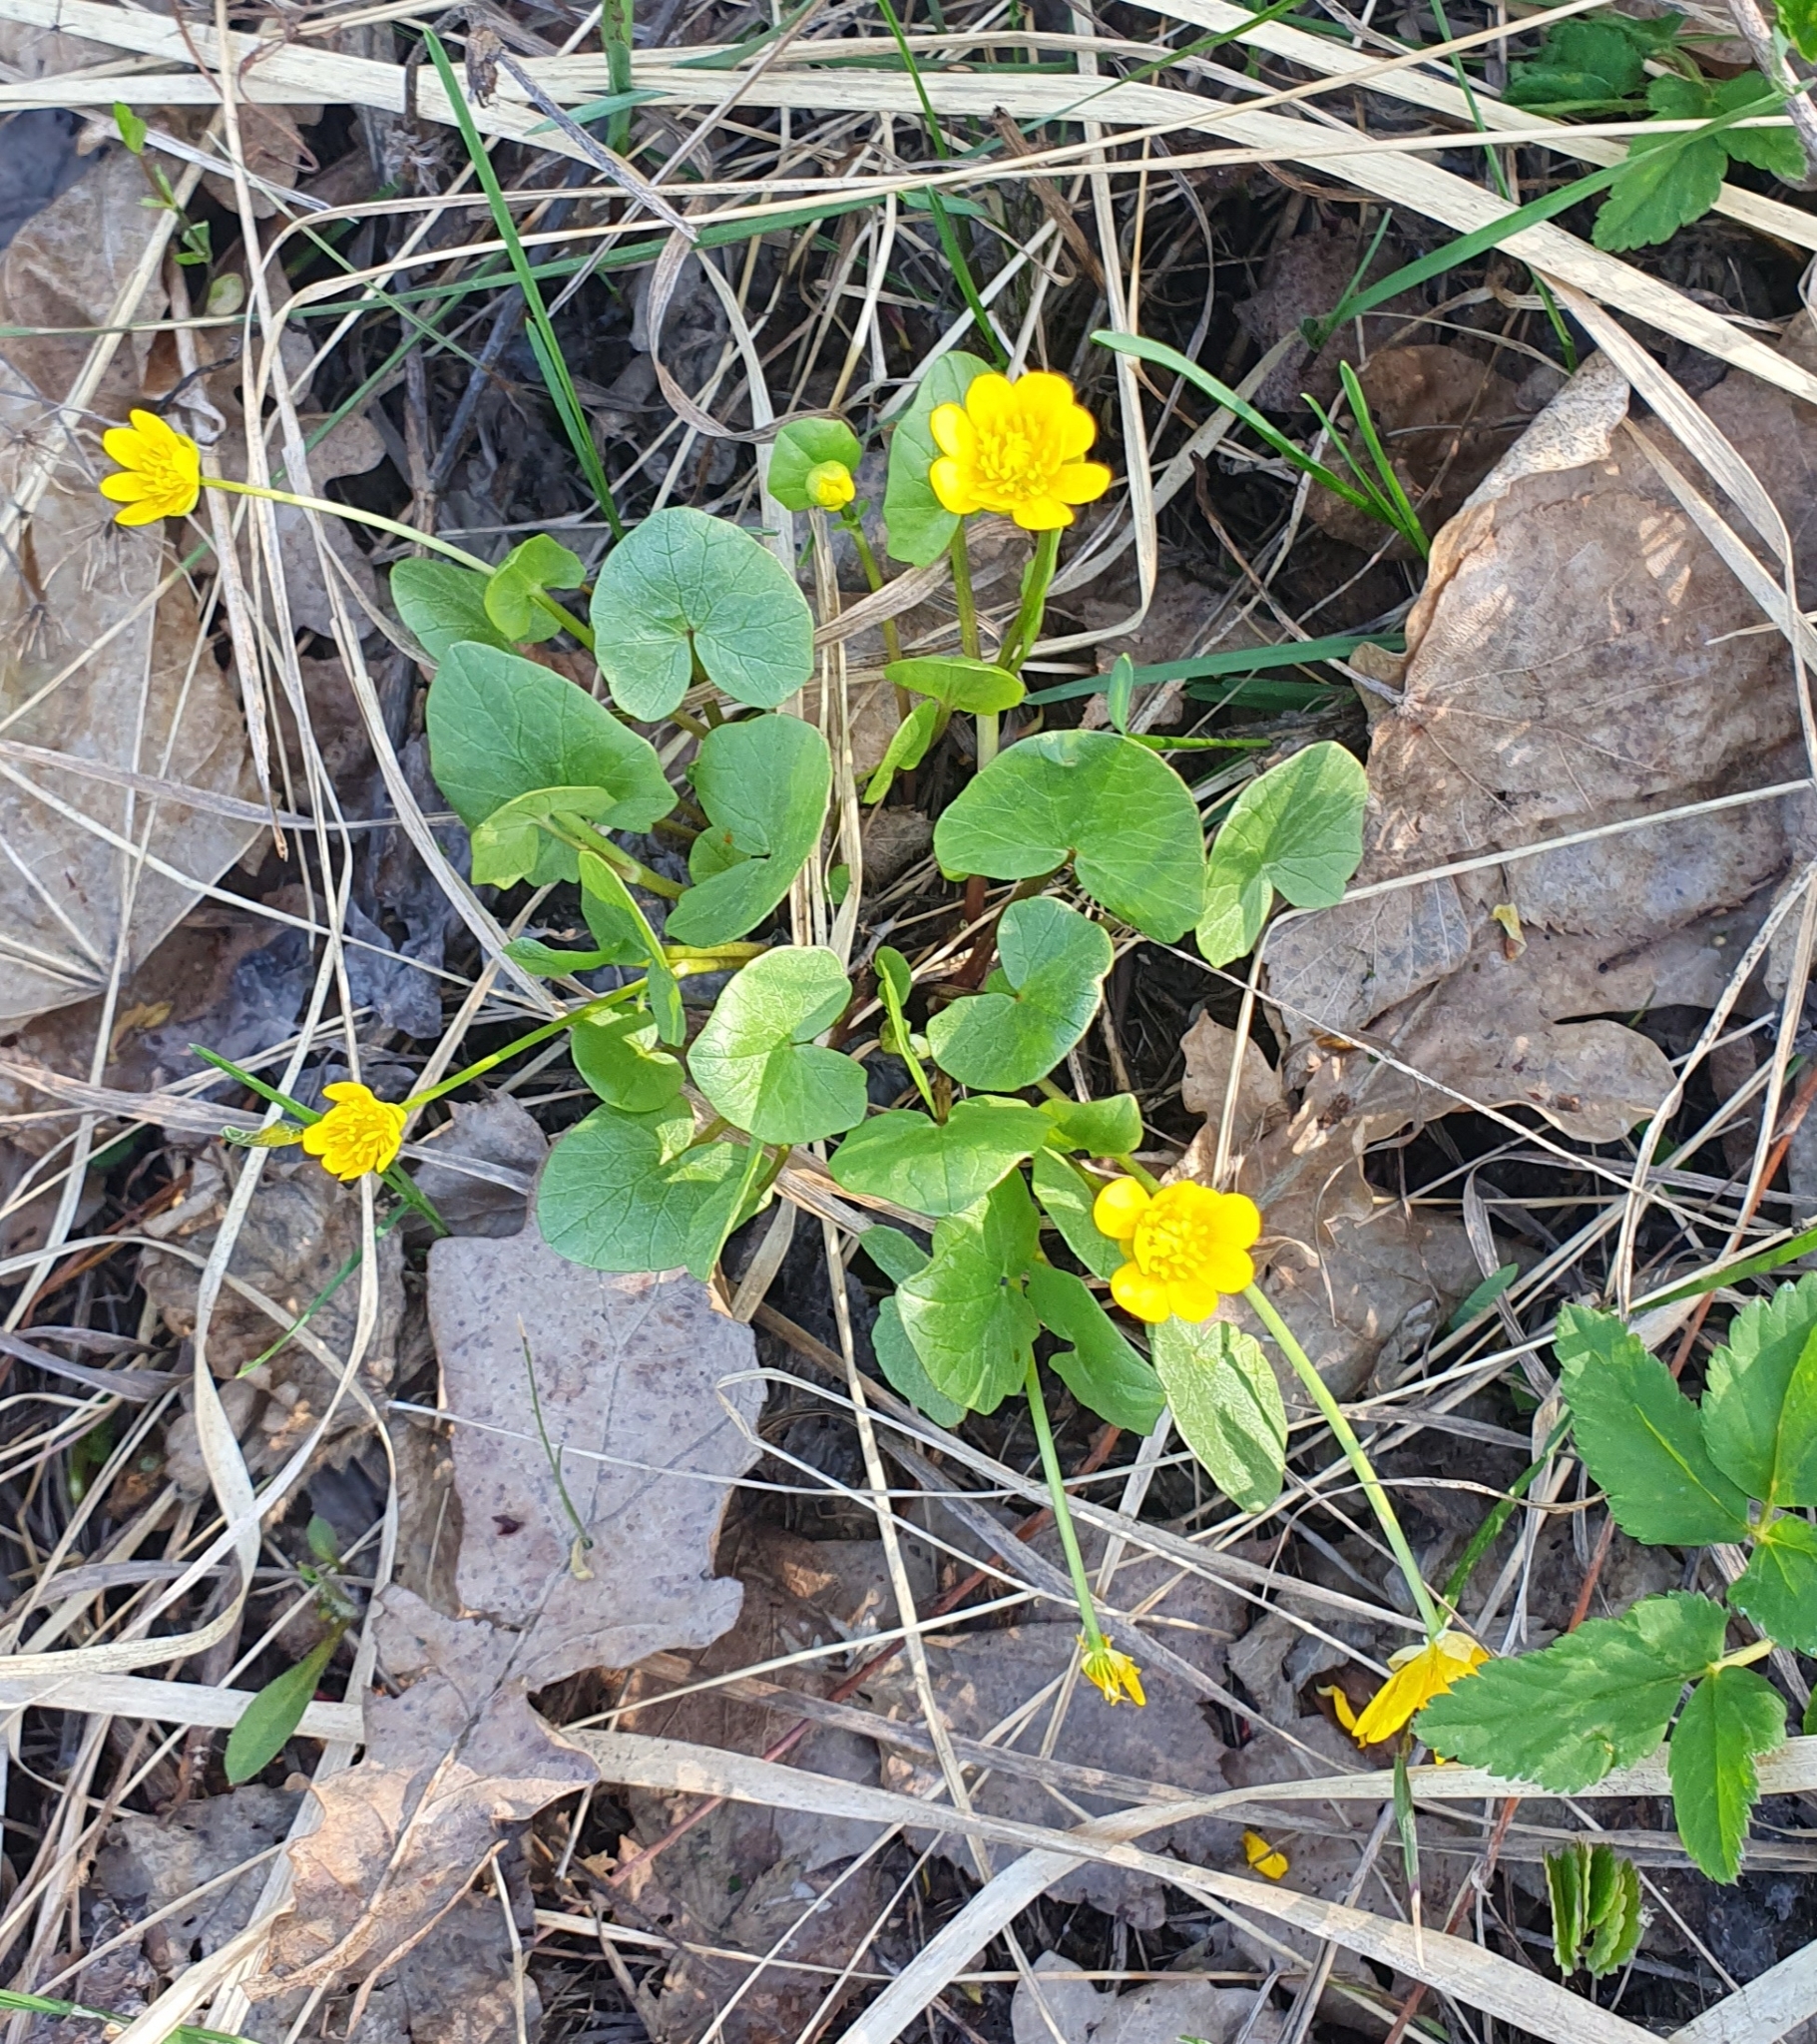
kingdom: Plantae
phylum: Tracheophyta
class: Magnoliopsida
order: Ranunculales
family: Ranunculaceae
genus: Ficaria
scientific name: Ficaria verna
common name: Lesser celandine
